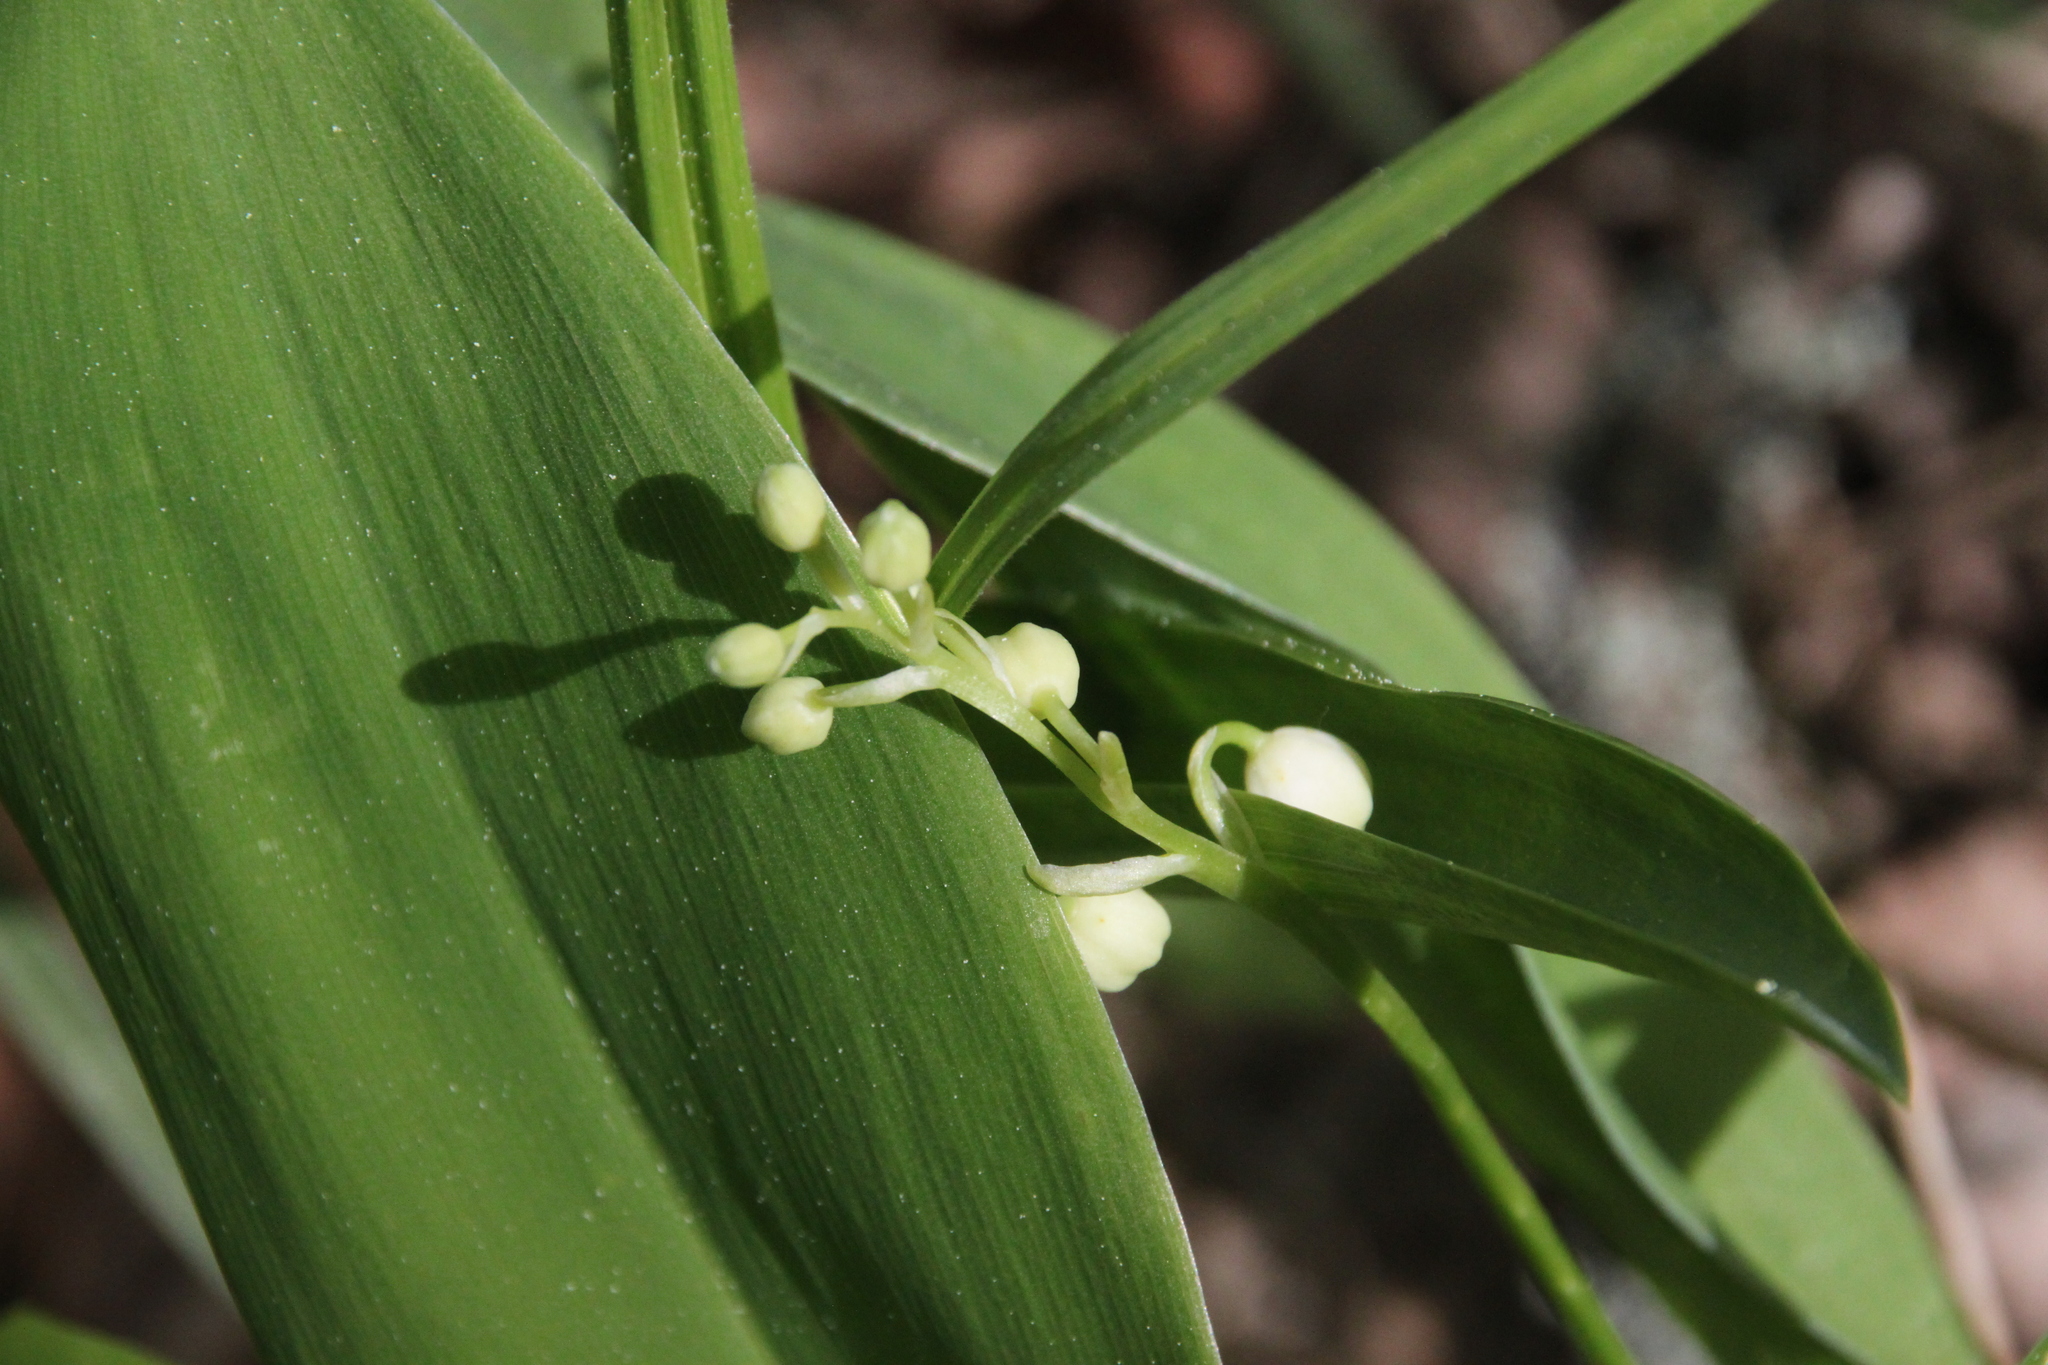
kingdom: Plantae
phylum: Tracheophyta
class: Liliopsida
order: Asparagales
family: Asparagaceae
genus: Convallaria
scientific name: Convallaria majalis
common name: Lily-of-the-valley
